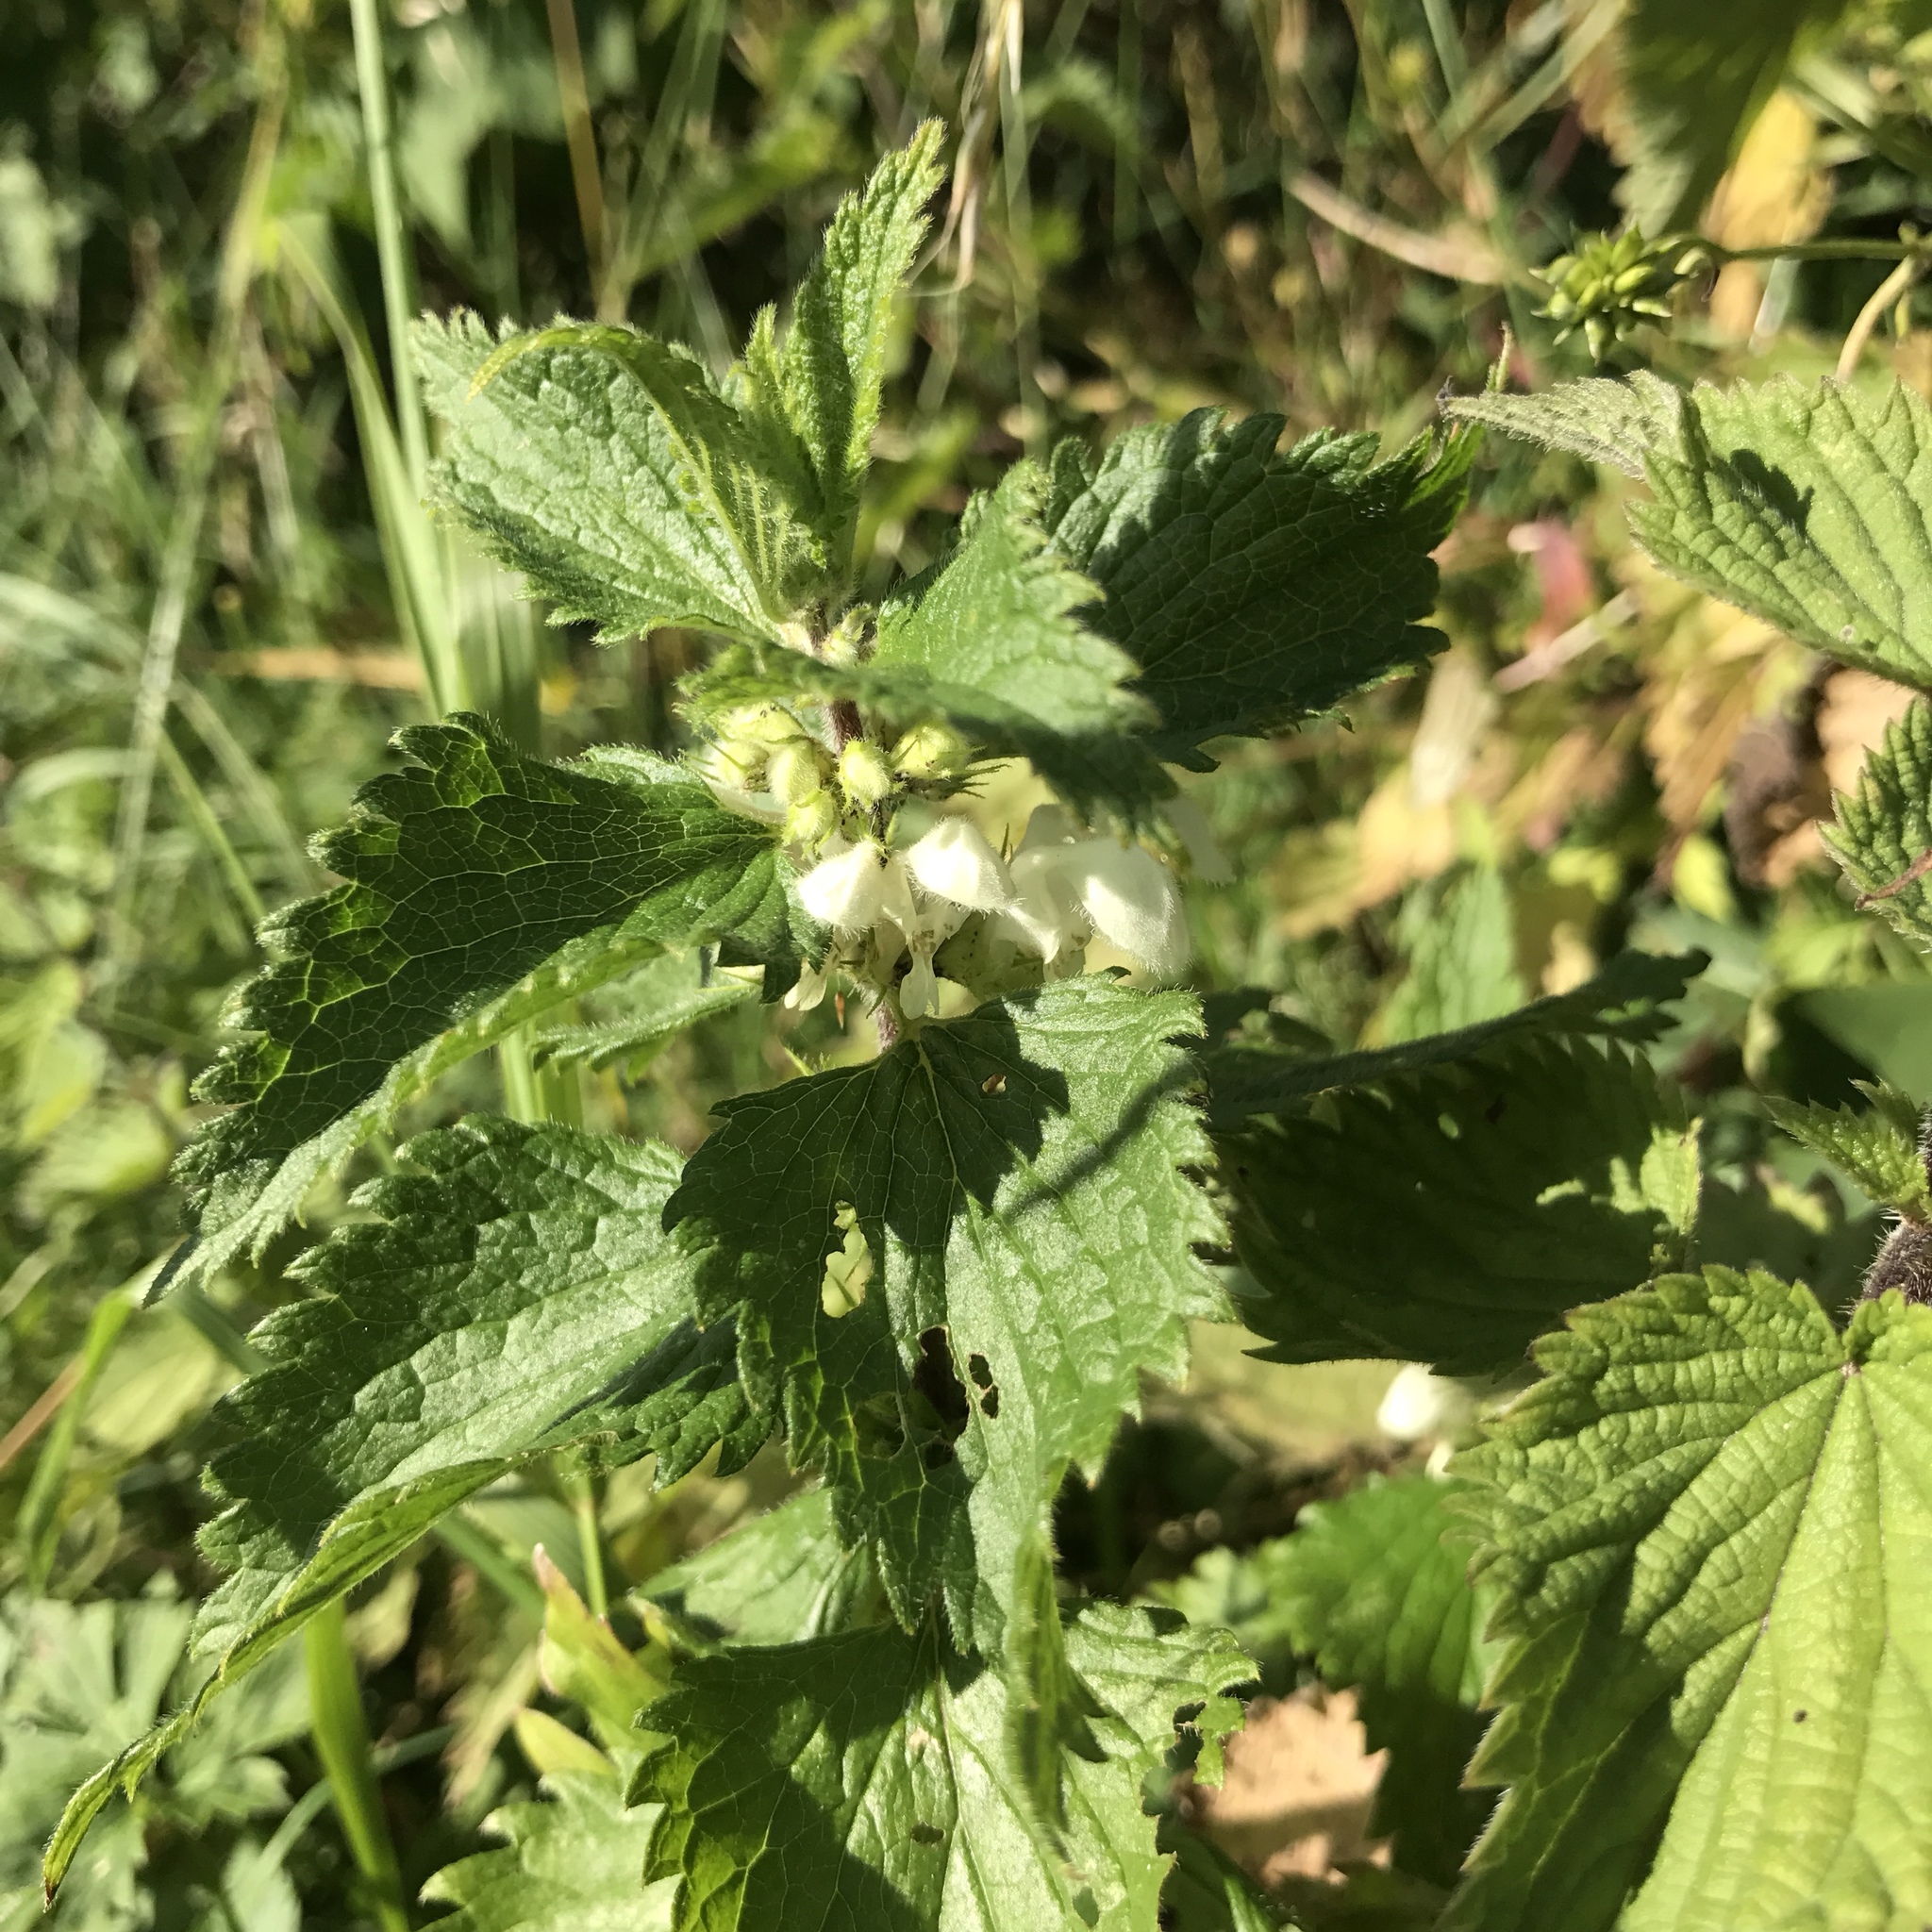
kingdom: Plantae
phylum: Tracheophyta
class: Magnoliopsida
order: Lamiales
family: Lamiaceae
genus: Lamium
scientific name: Lamium album
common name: White dead-nettle
